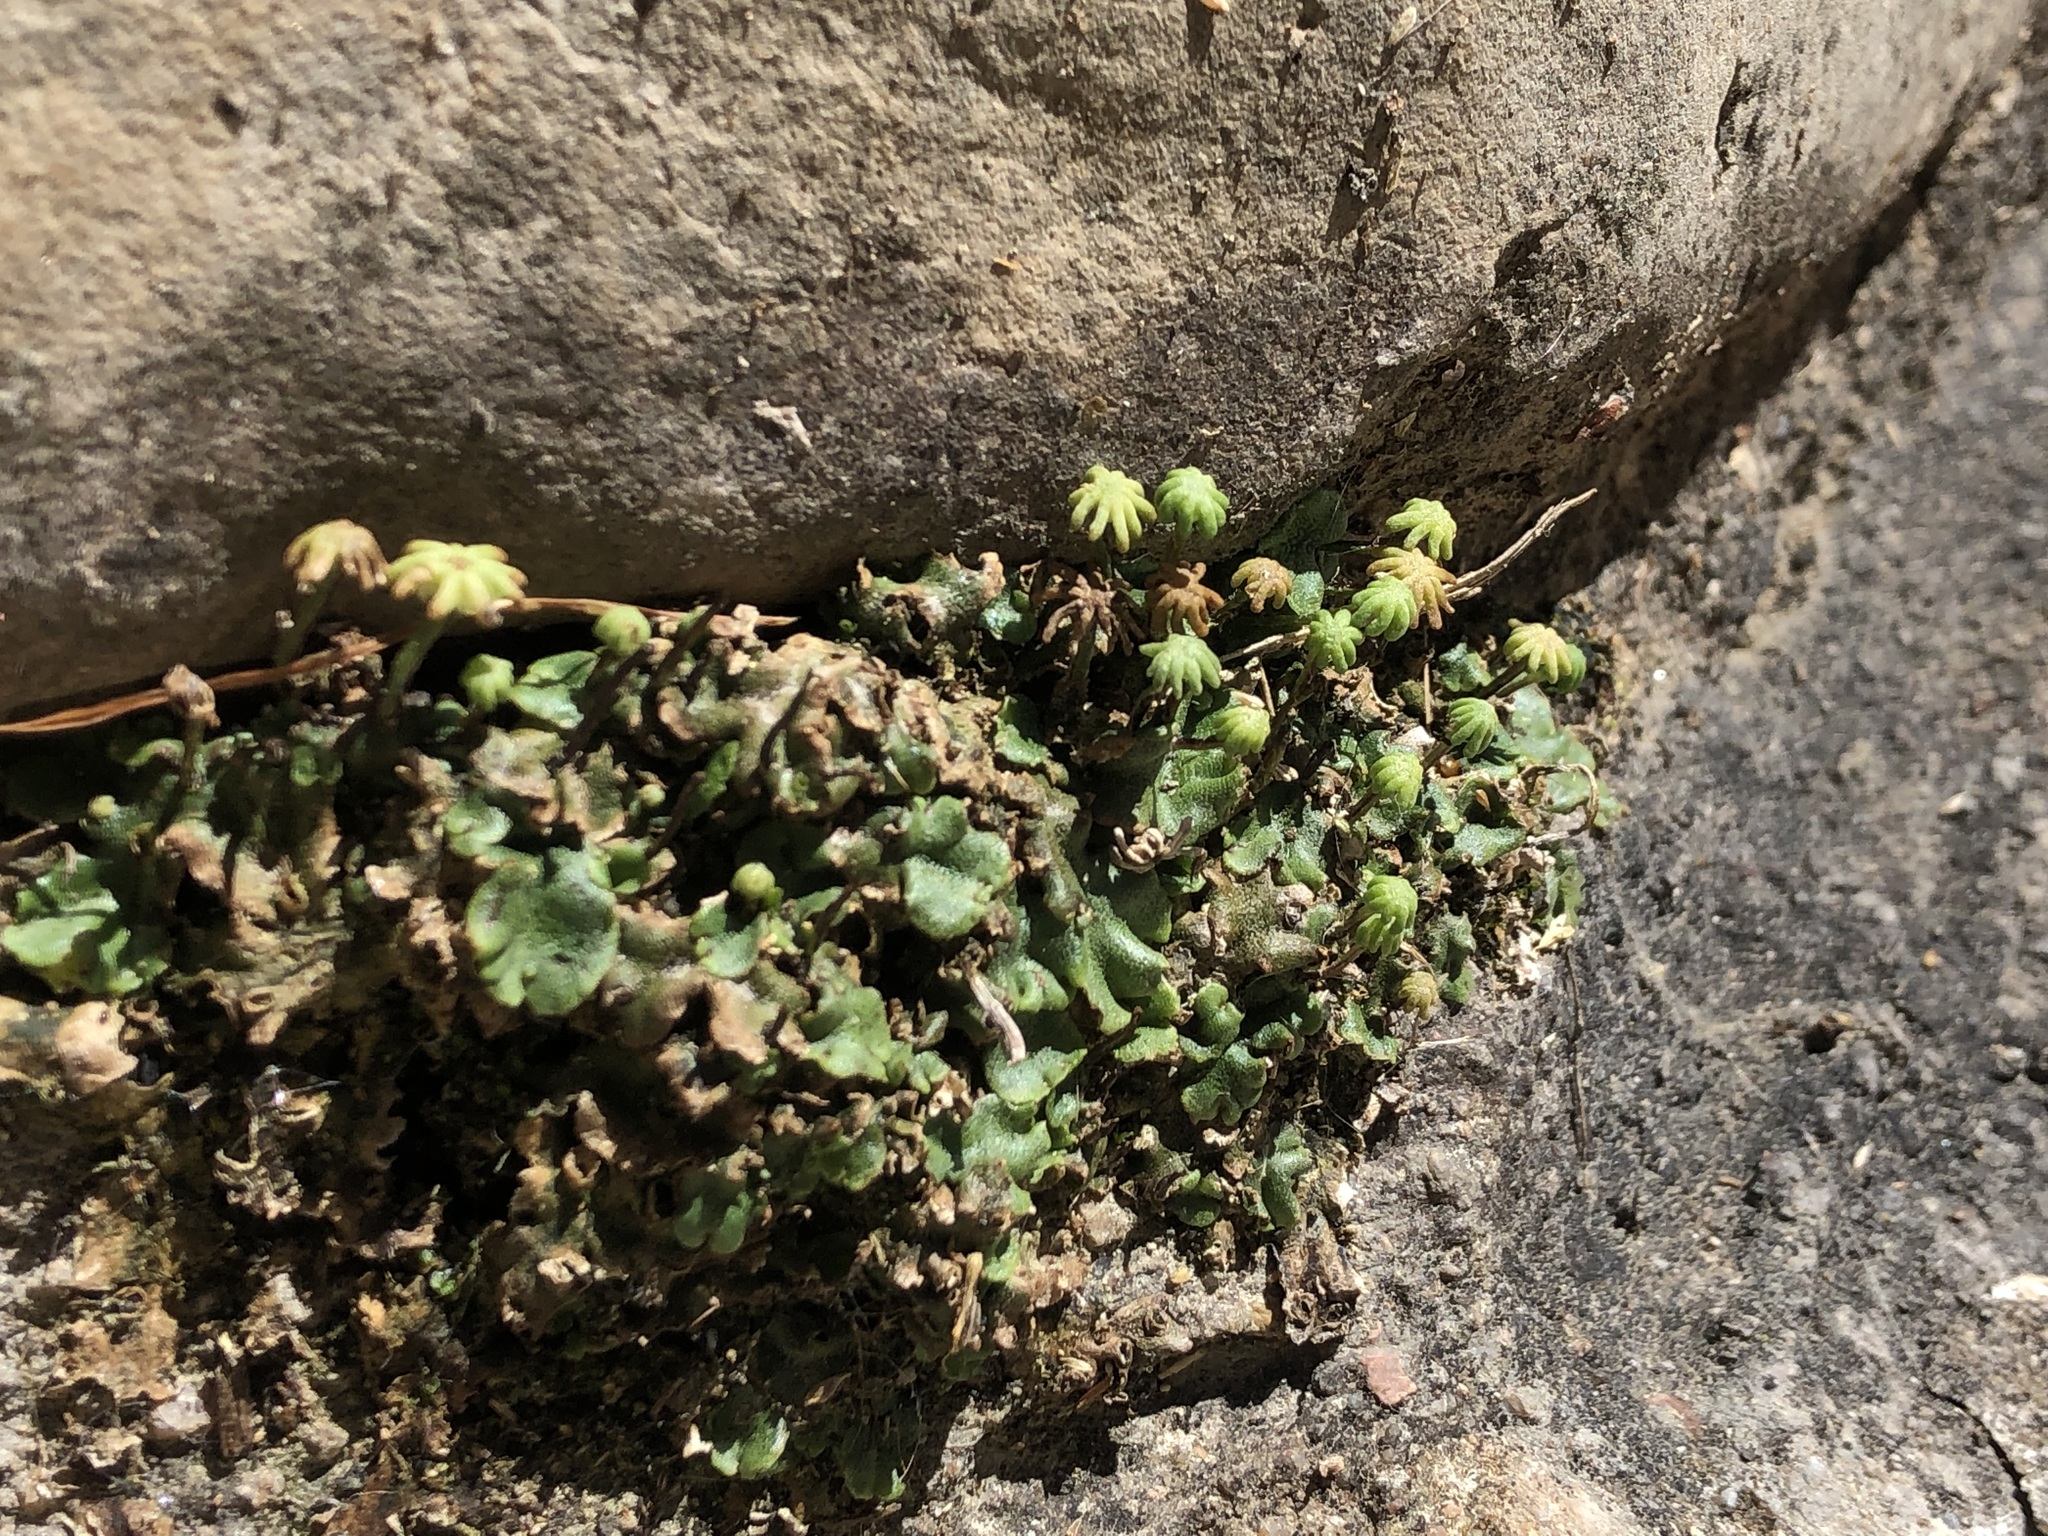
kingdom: Plantae
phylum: Marchantiophyta
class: Marchantiopsida
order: Marchantiales
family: Marchantiaceae
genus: Marchantia
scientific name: Marchantia polymorpha
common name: Common liverwort
